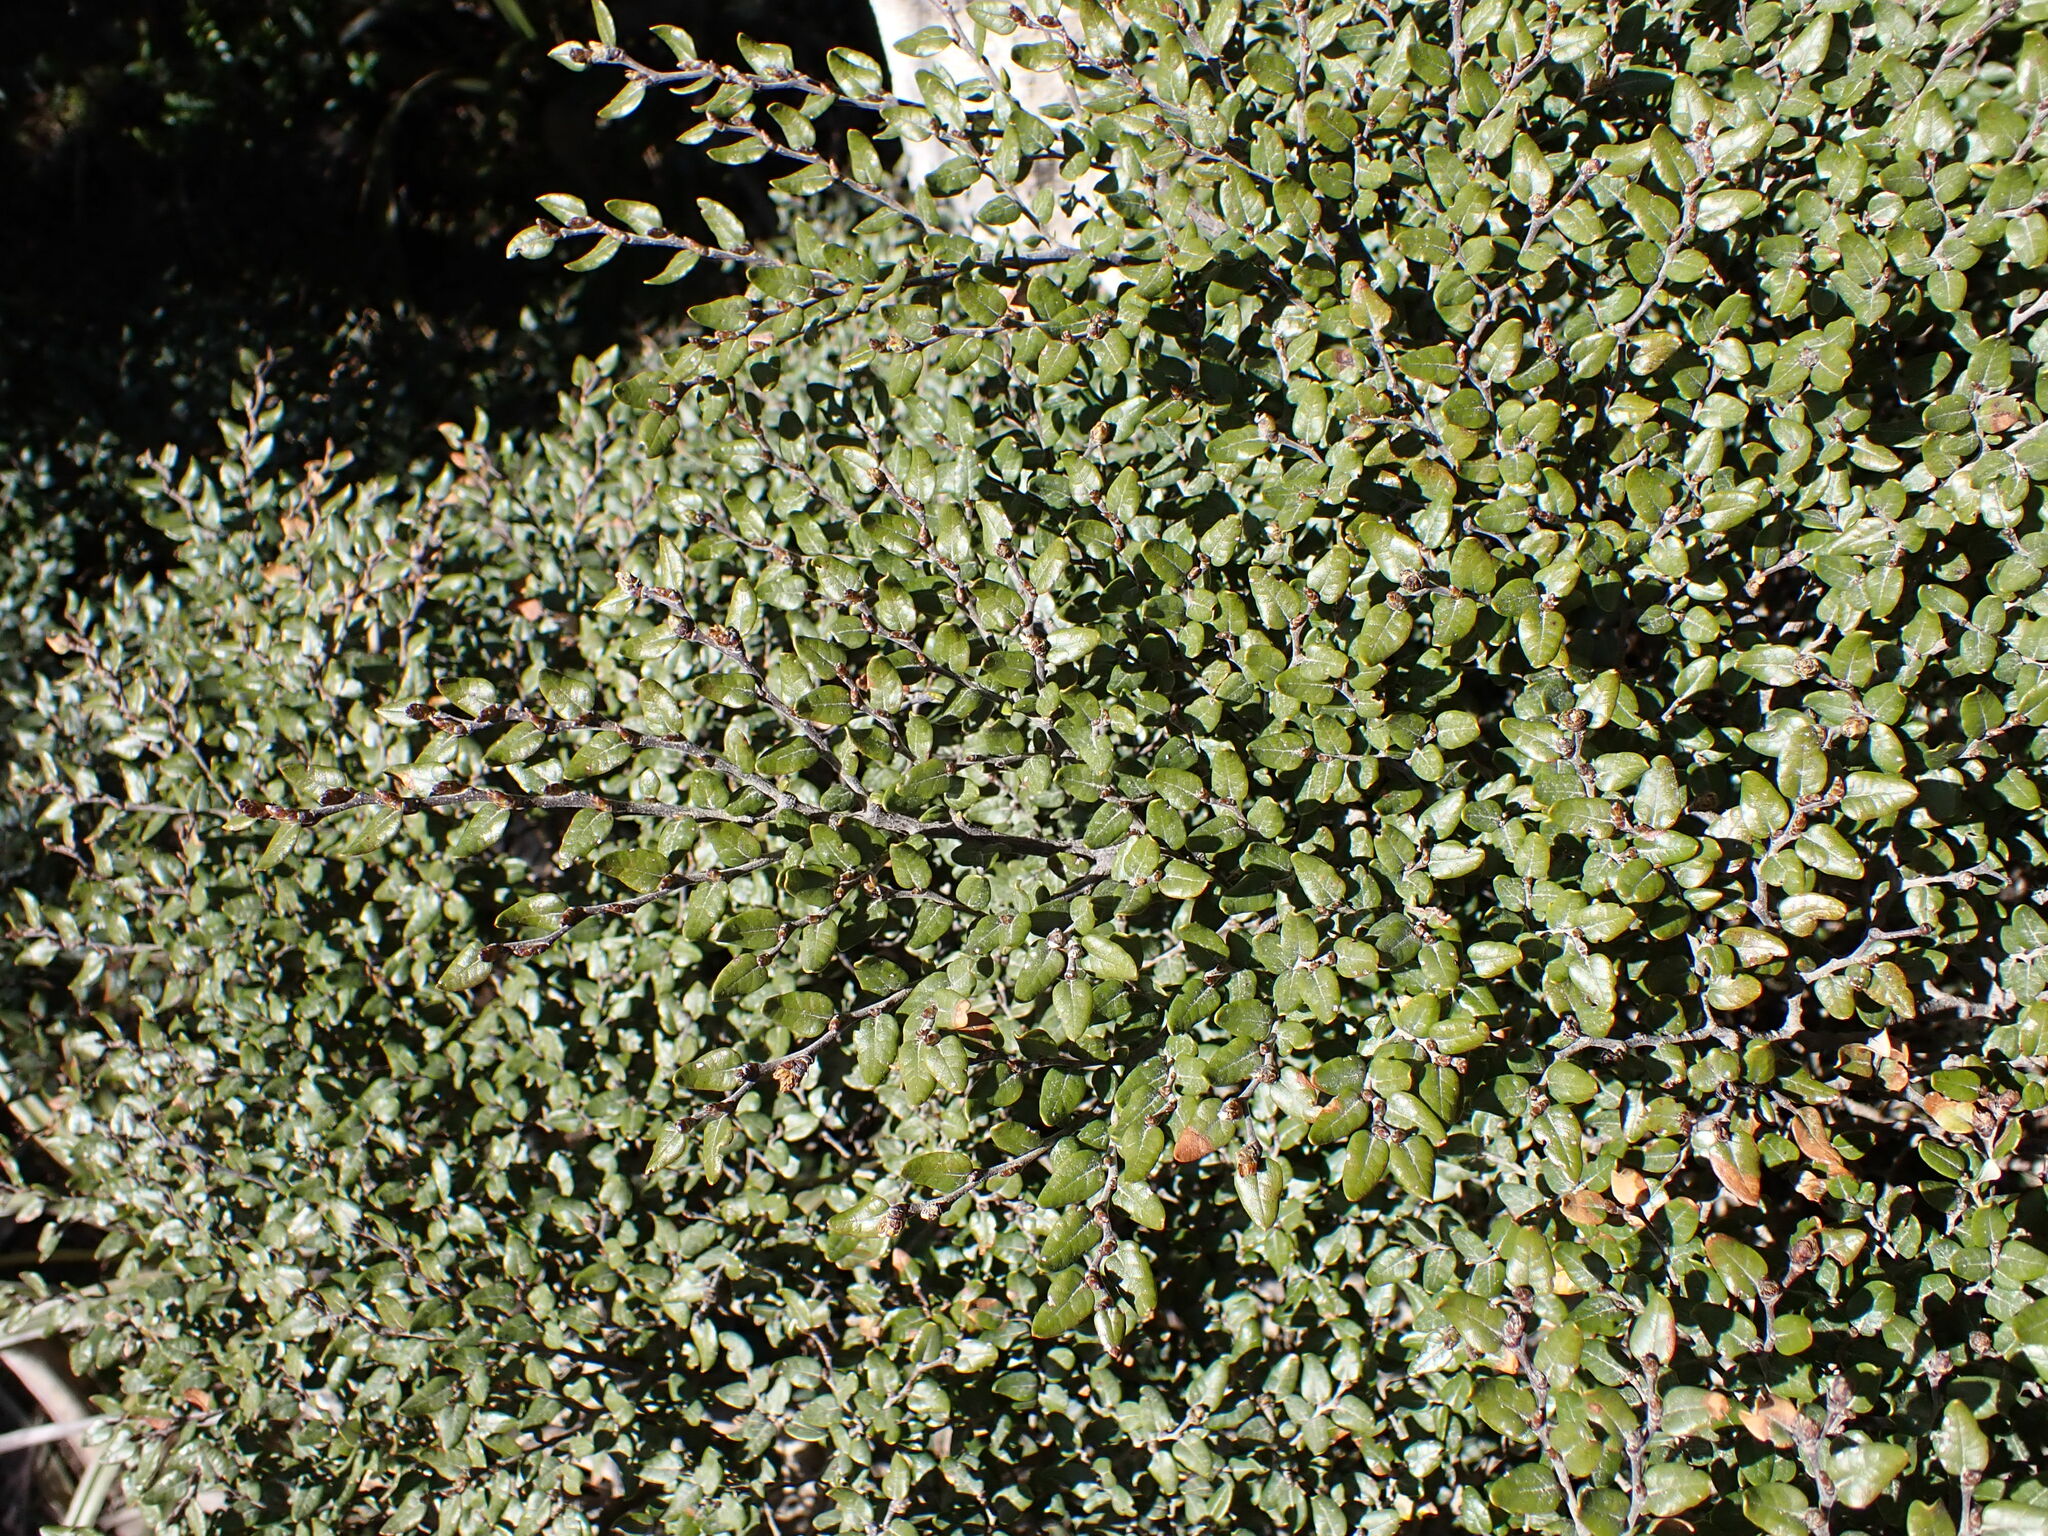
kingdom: Plantae
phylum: Tracheophyta
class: Magnoliopsida
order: Fagales
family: Nothofagaceae
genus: Nothofagus
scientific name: Nothofagus cliffortioides
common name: Mountain beech
